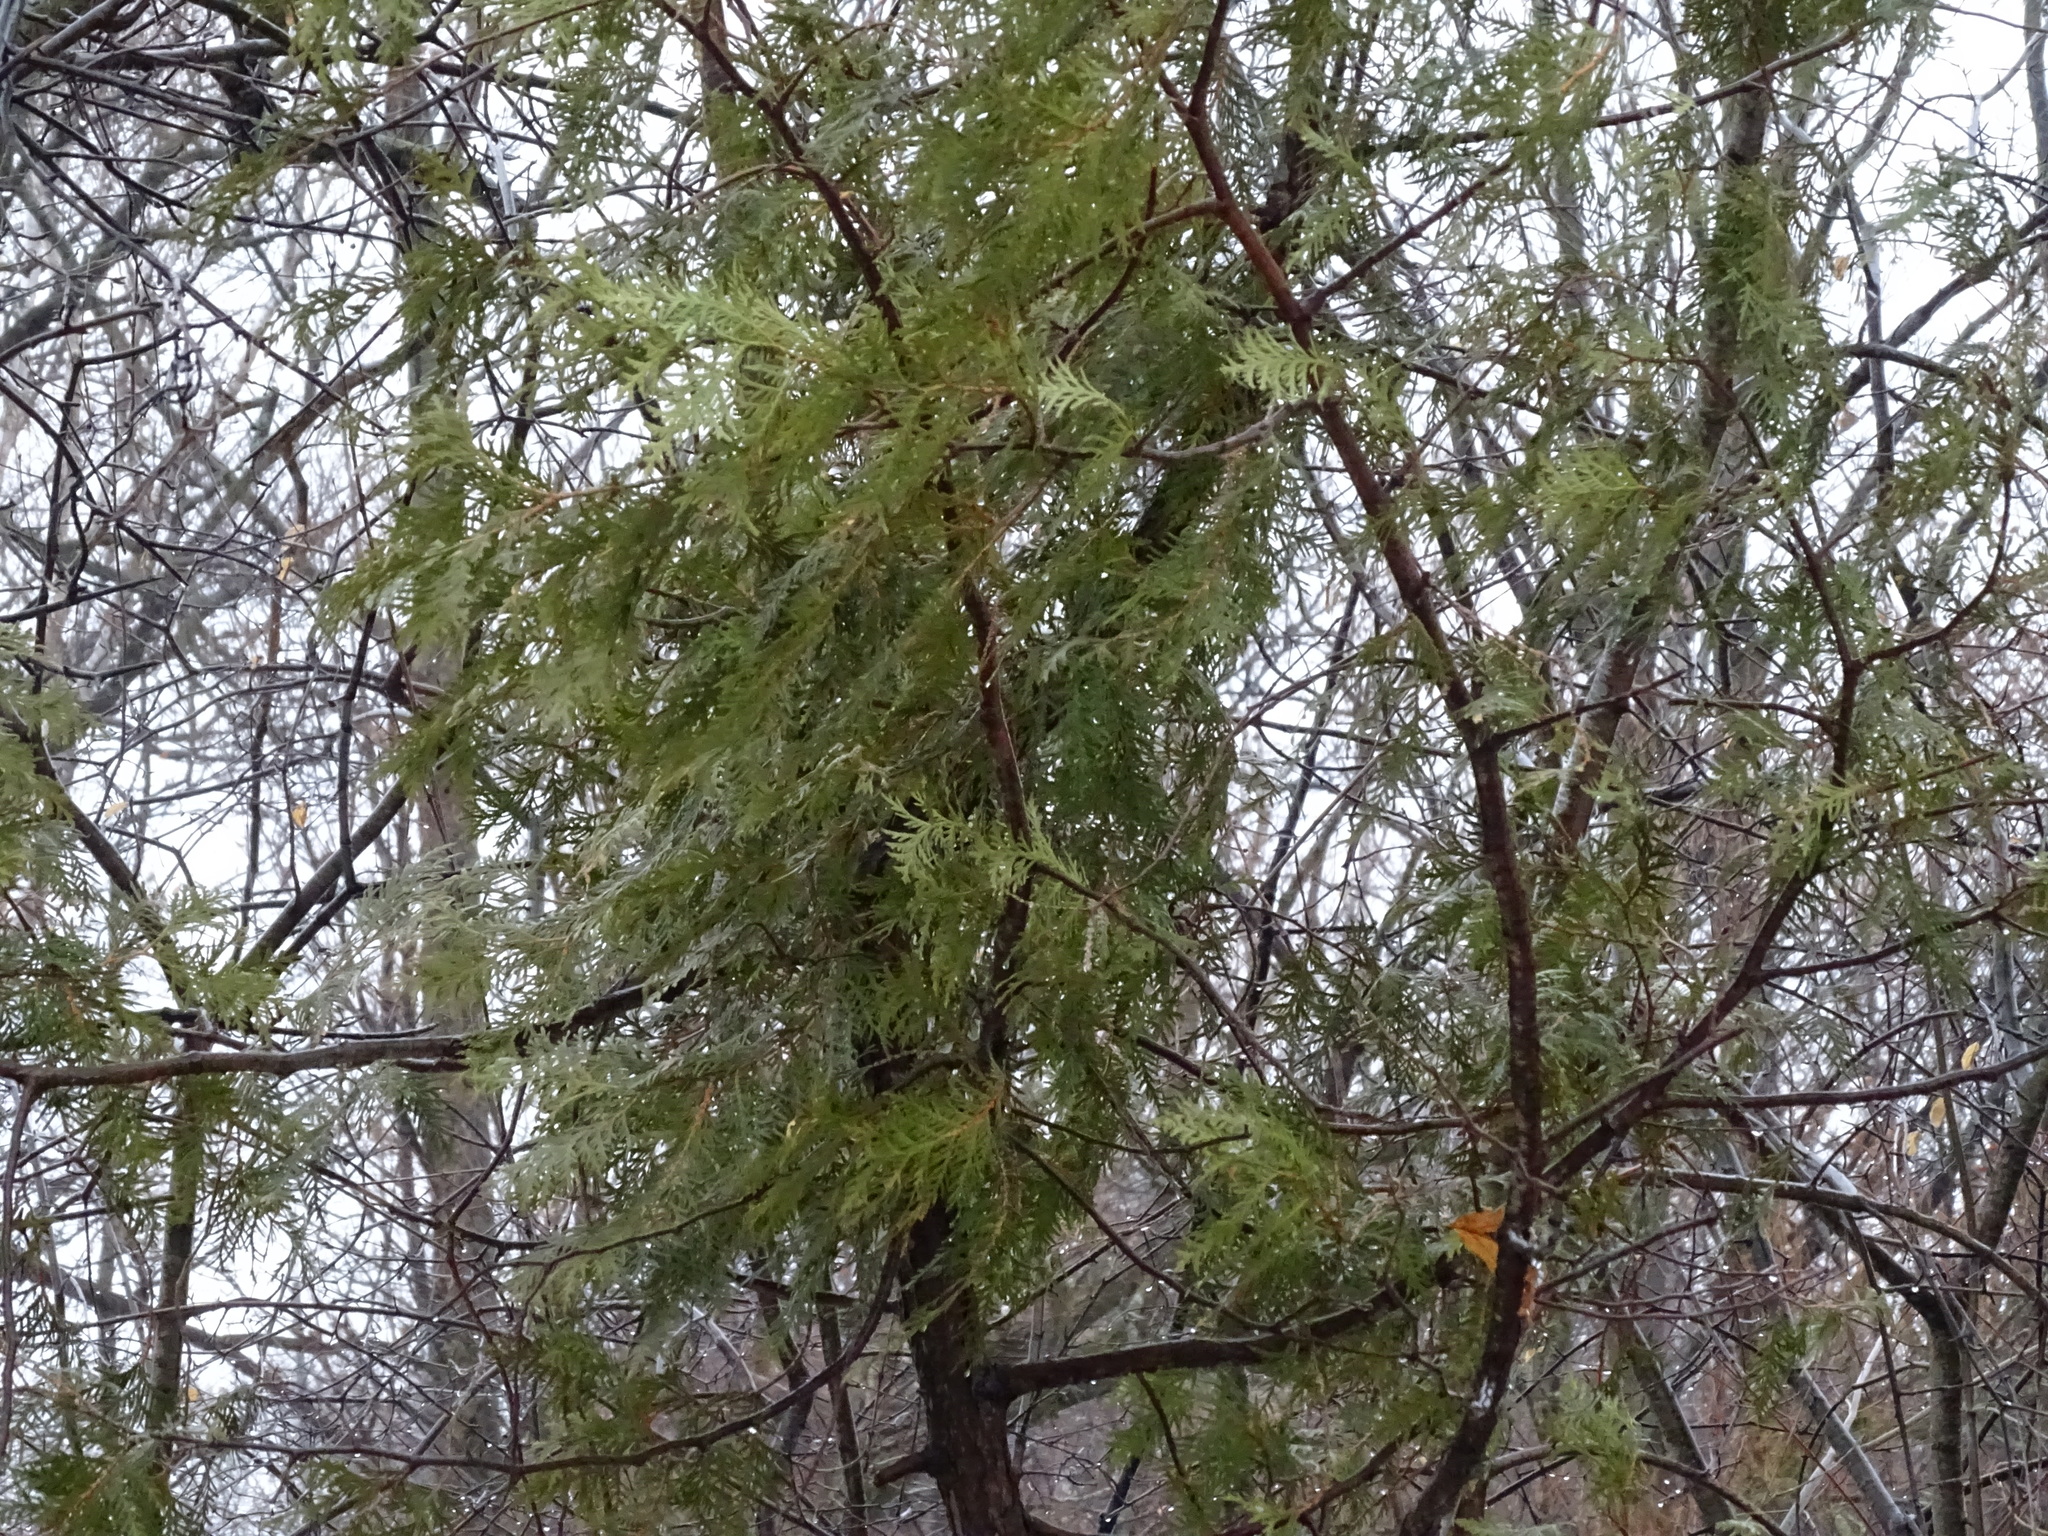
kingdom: Plantae
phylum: Tracheophyta
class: Pinopsida
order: Pinales
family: Cupressaceae
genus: Thuja
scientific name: Thuja occidentalis
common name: Northern white-cedar
